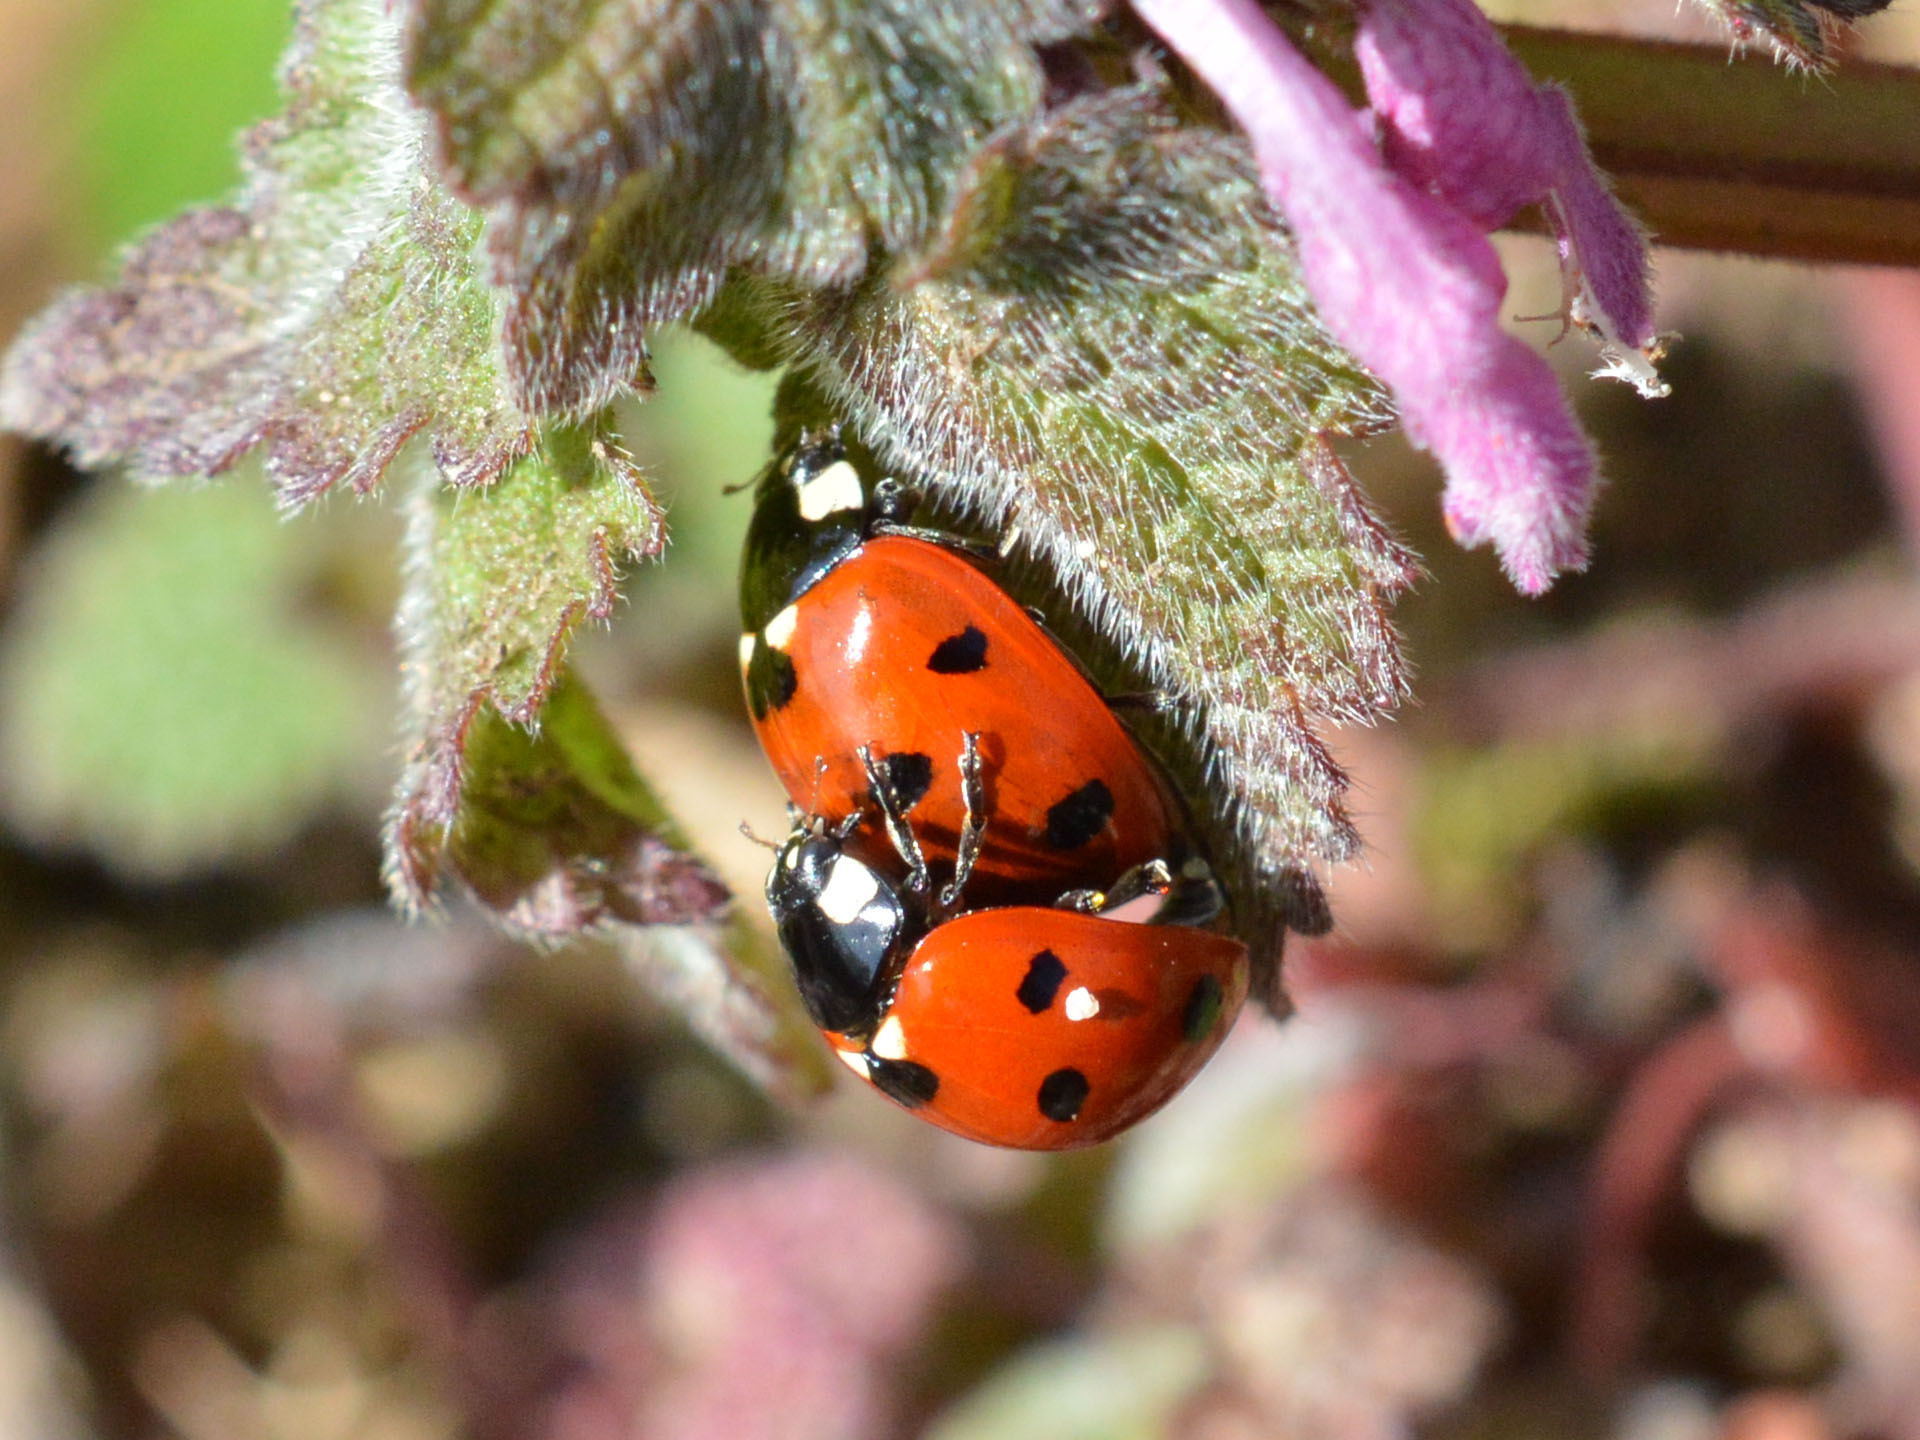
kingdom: Animalia
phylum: Arthropoda
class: Insecta
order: Coleoptera
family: Coccinellidae
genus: Coccinella
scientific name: Coccinella septempunctata
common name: Sevenspotted lady beetle
